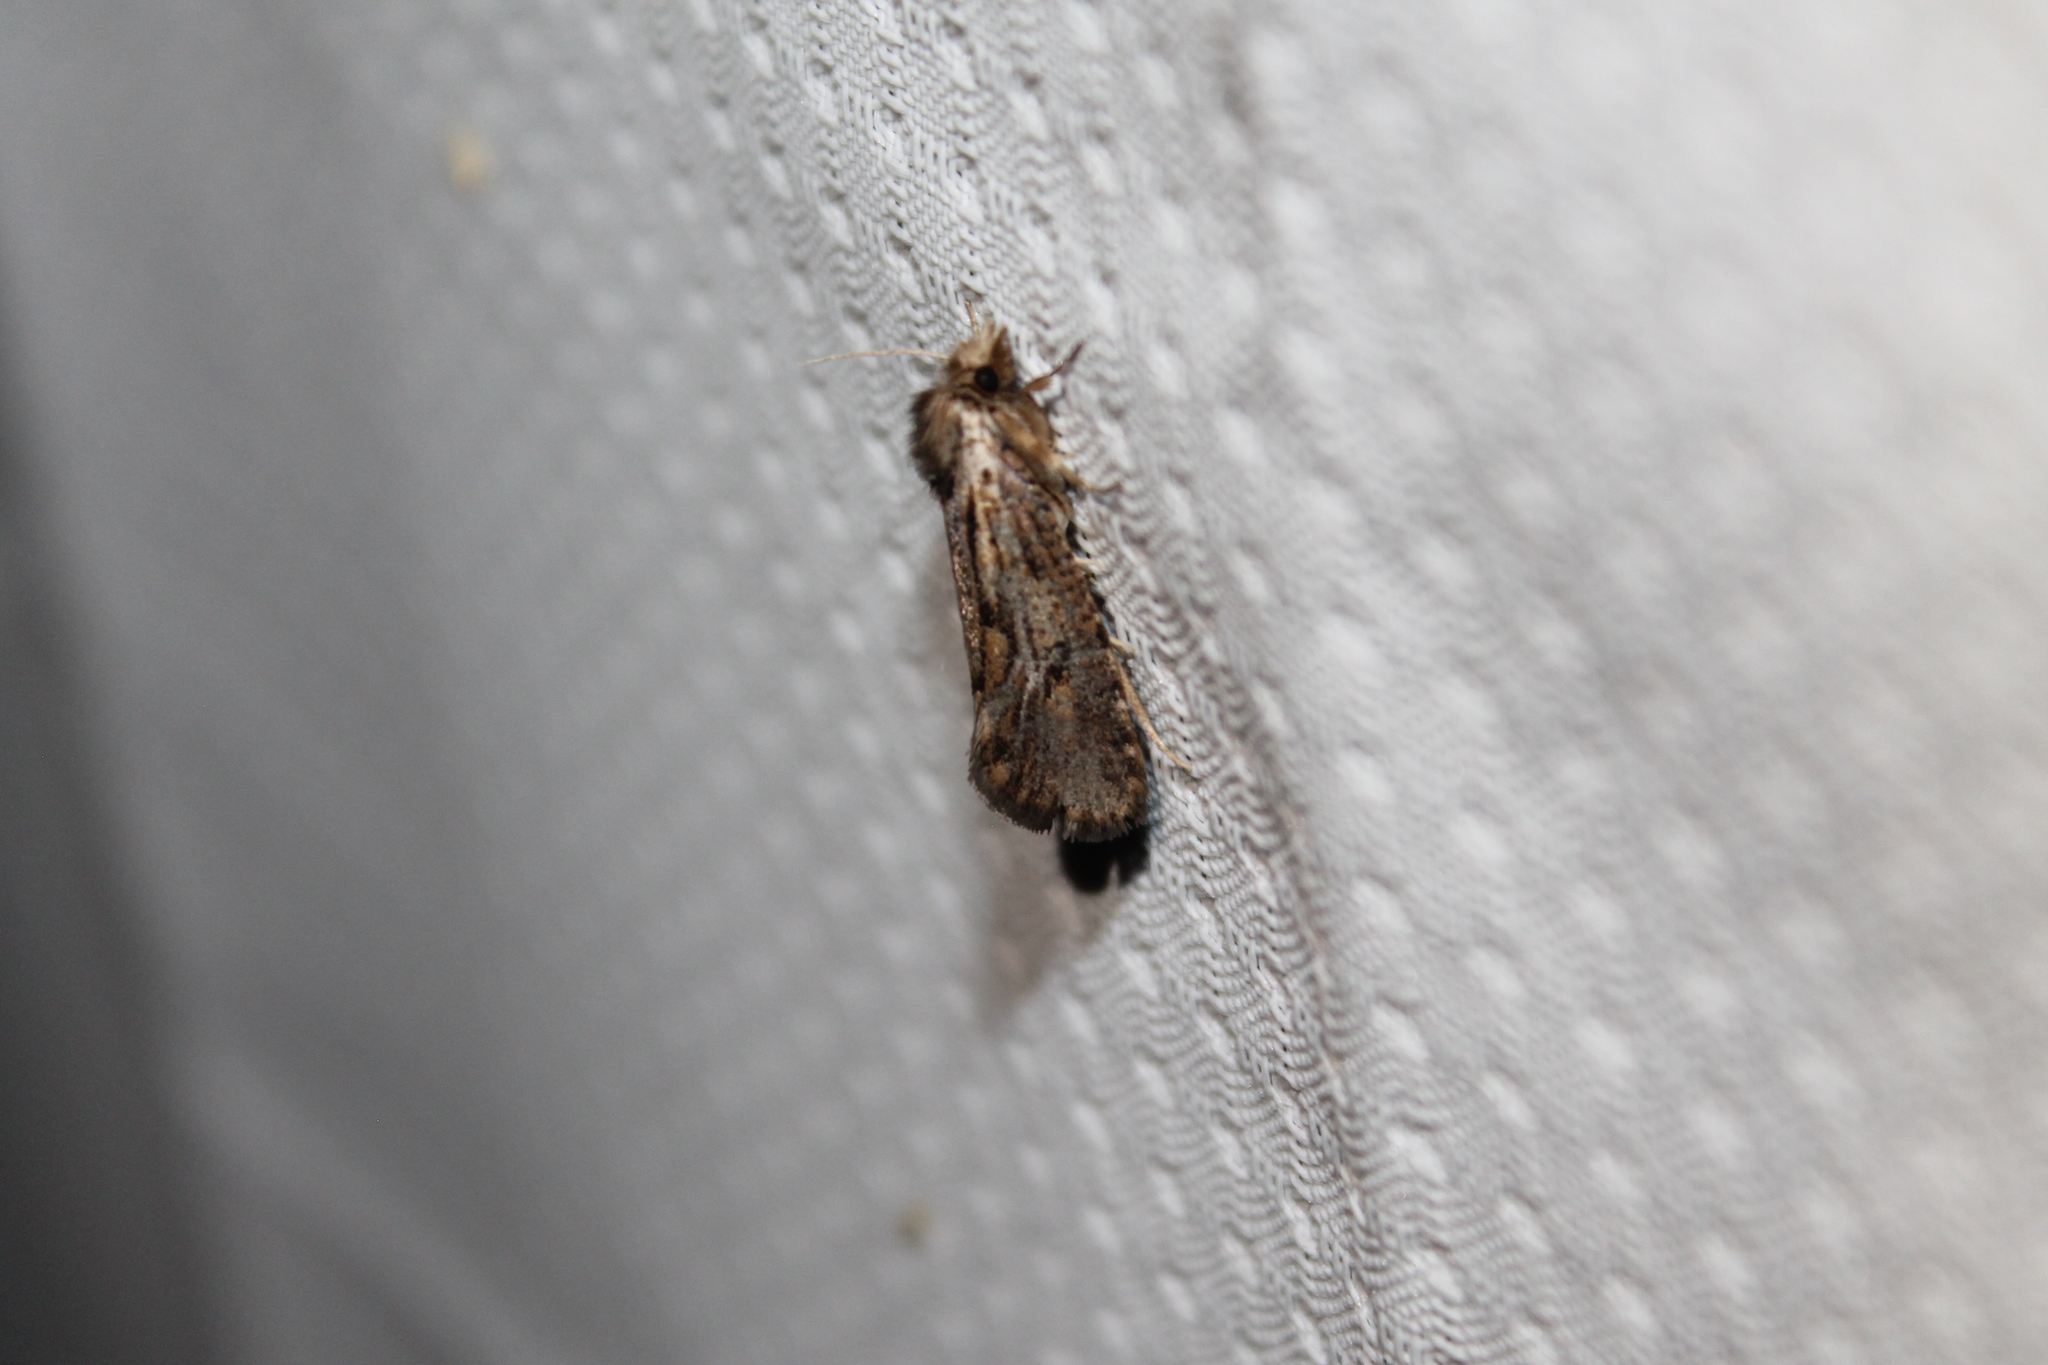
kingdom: Animalia
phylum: Arthropoda
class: Insecta
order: Lepidoptera
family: Tineidae
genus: Acrolophus
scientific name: Acrolophus popeanella
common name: Clemens' grass tubeworm moth
